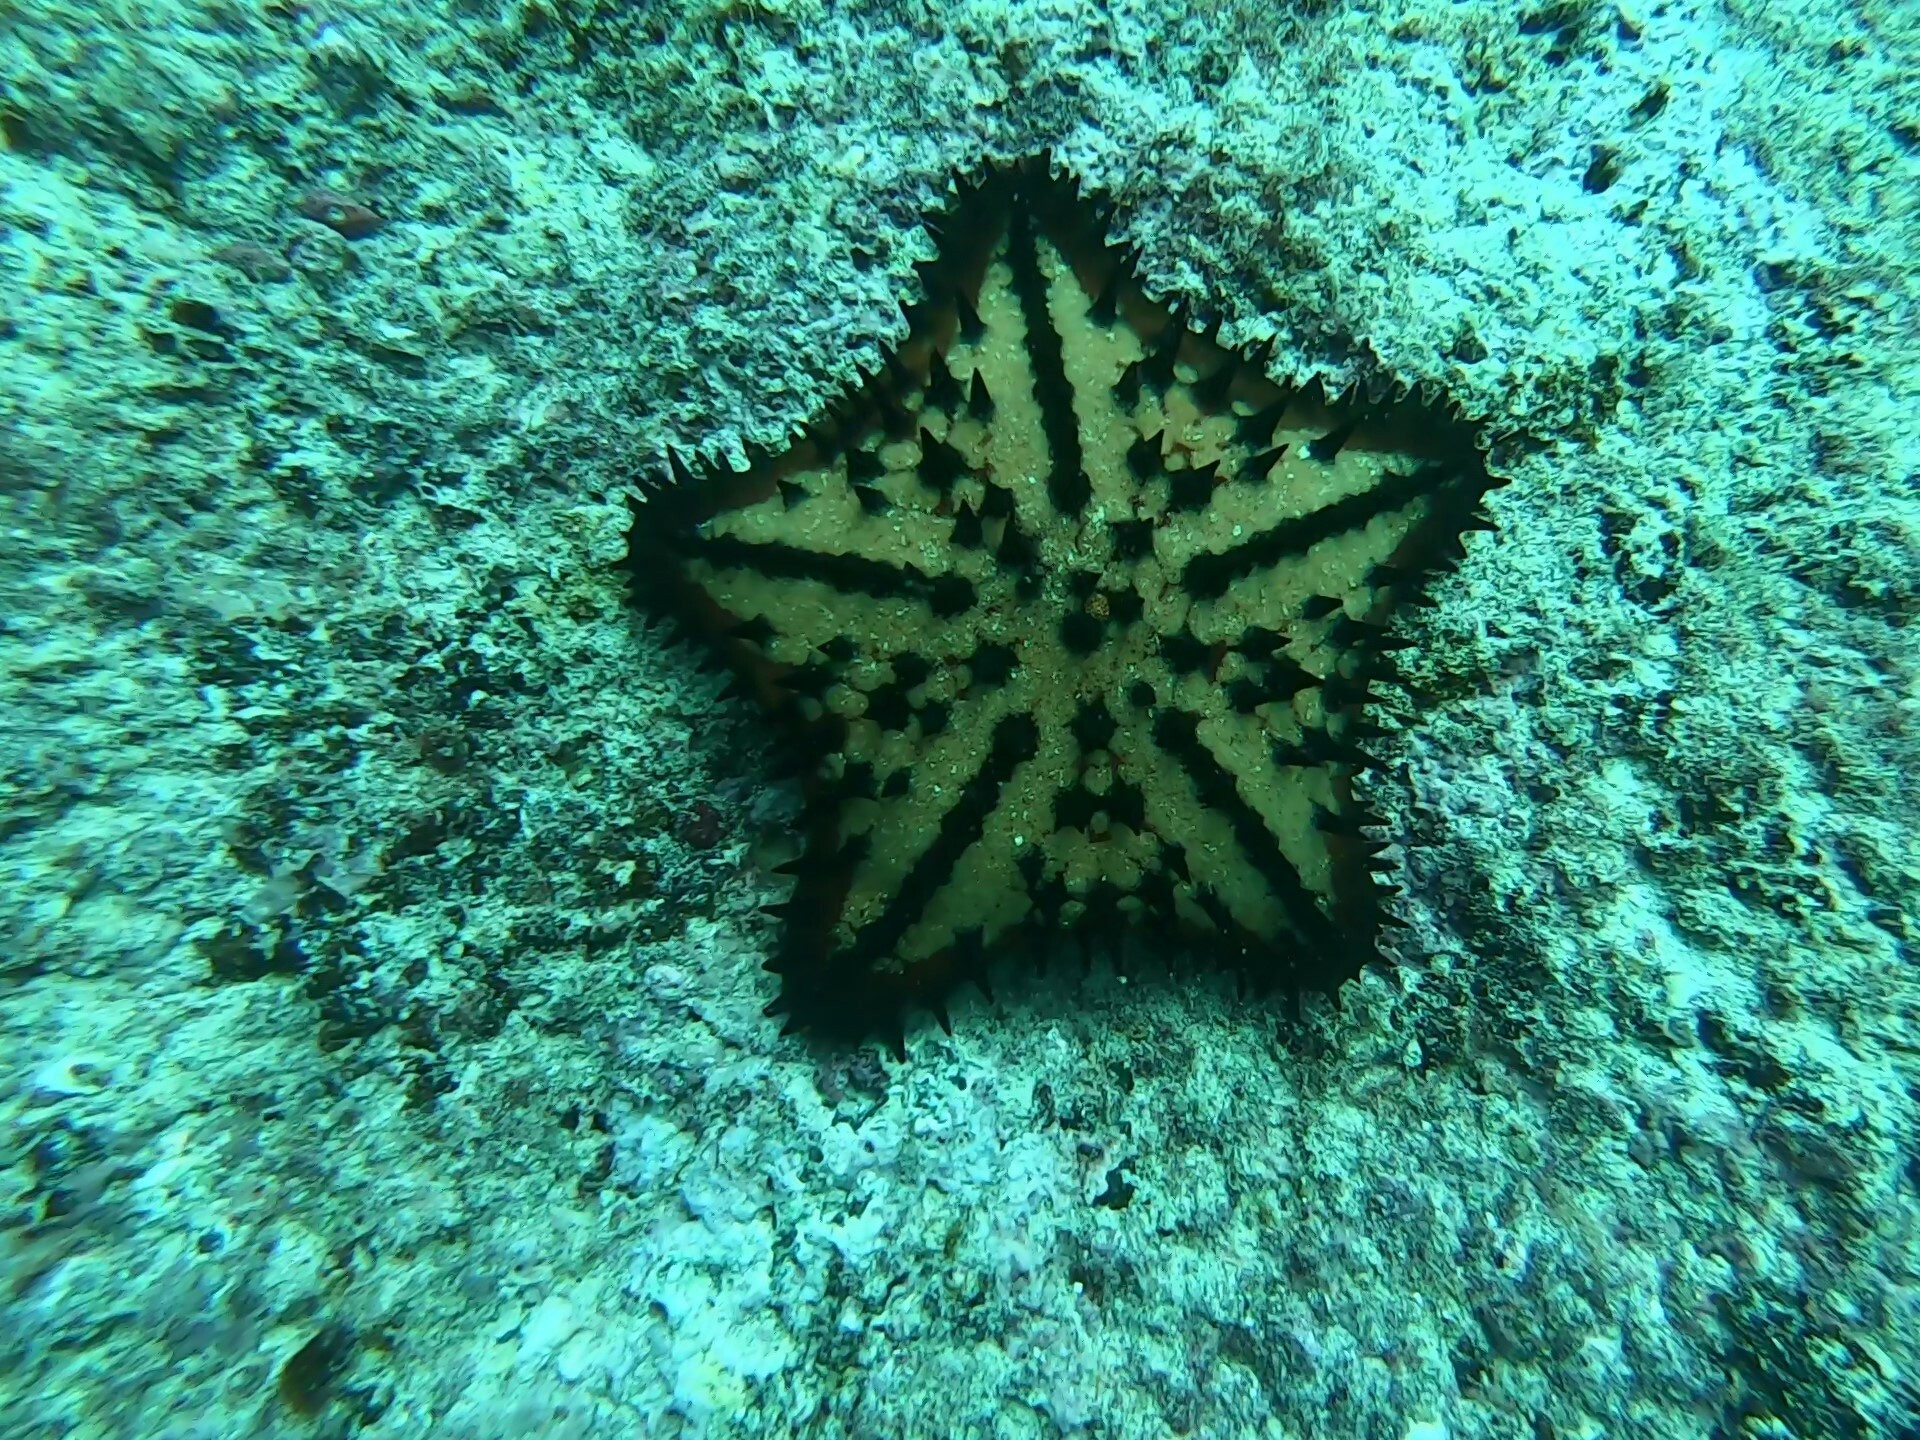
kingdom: Animalia
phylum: Echinodermata
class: Asteroidea
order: Valvatida
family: Oreasteridae
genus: Nidorellia
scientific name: Nidorellia armata
